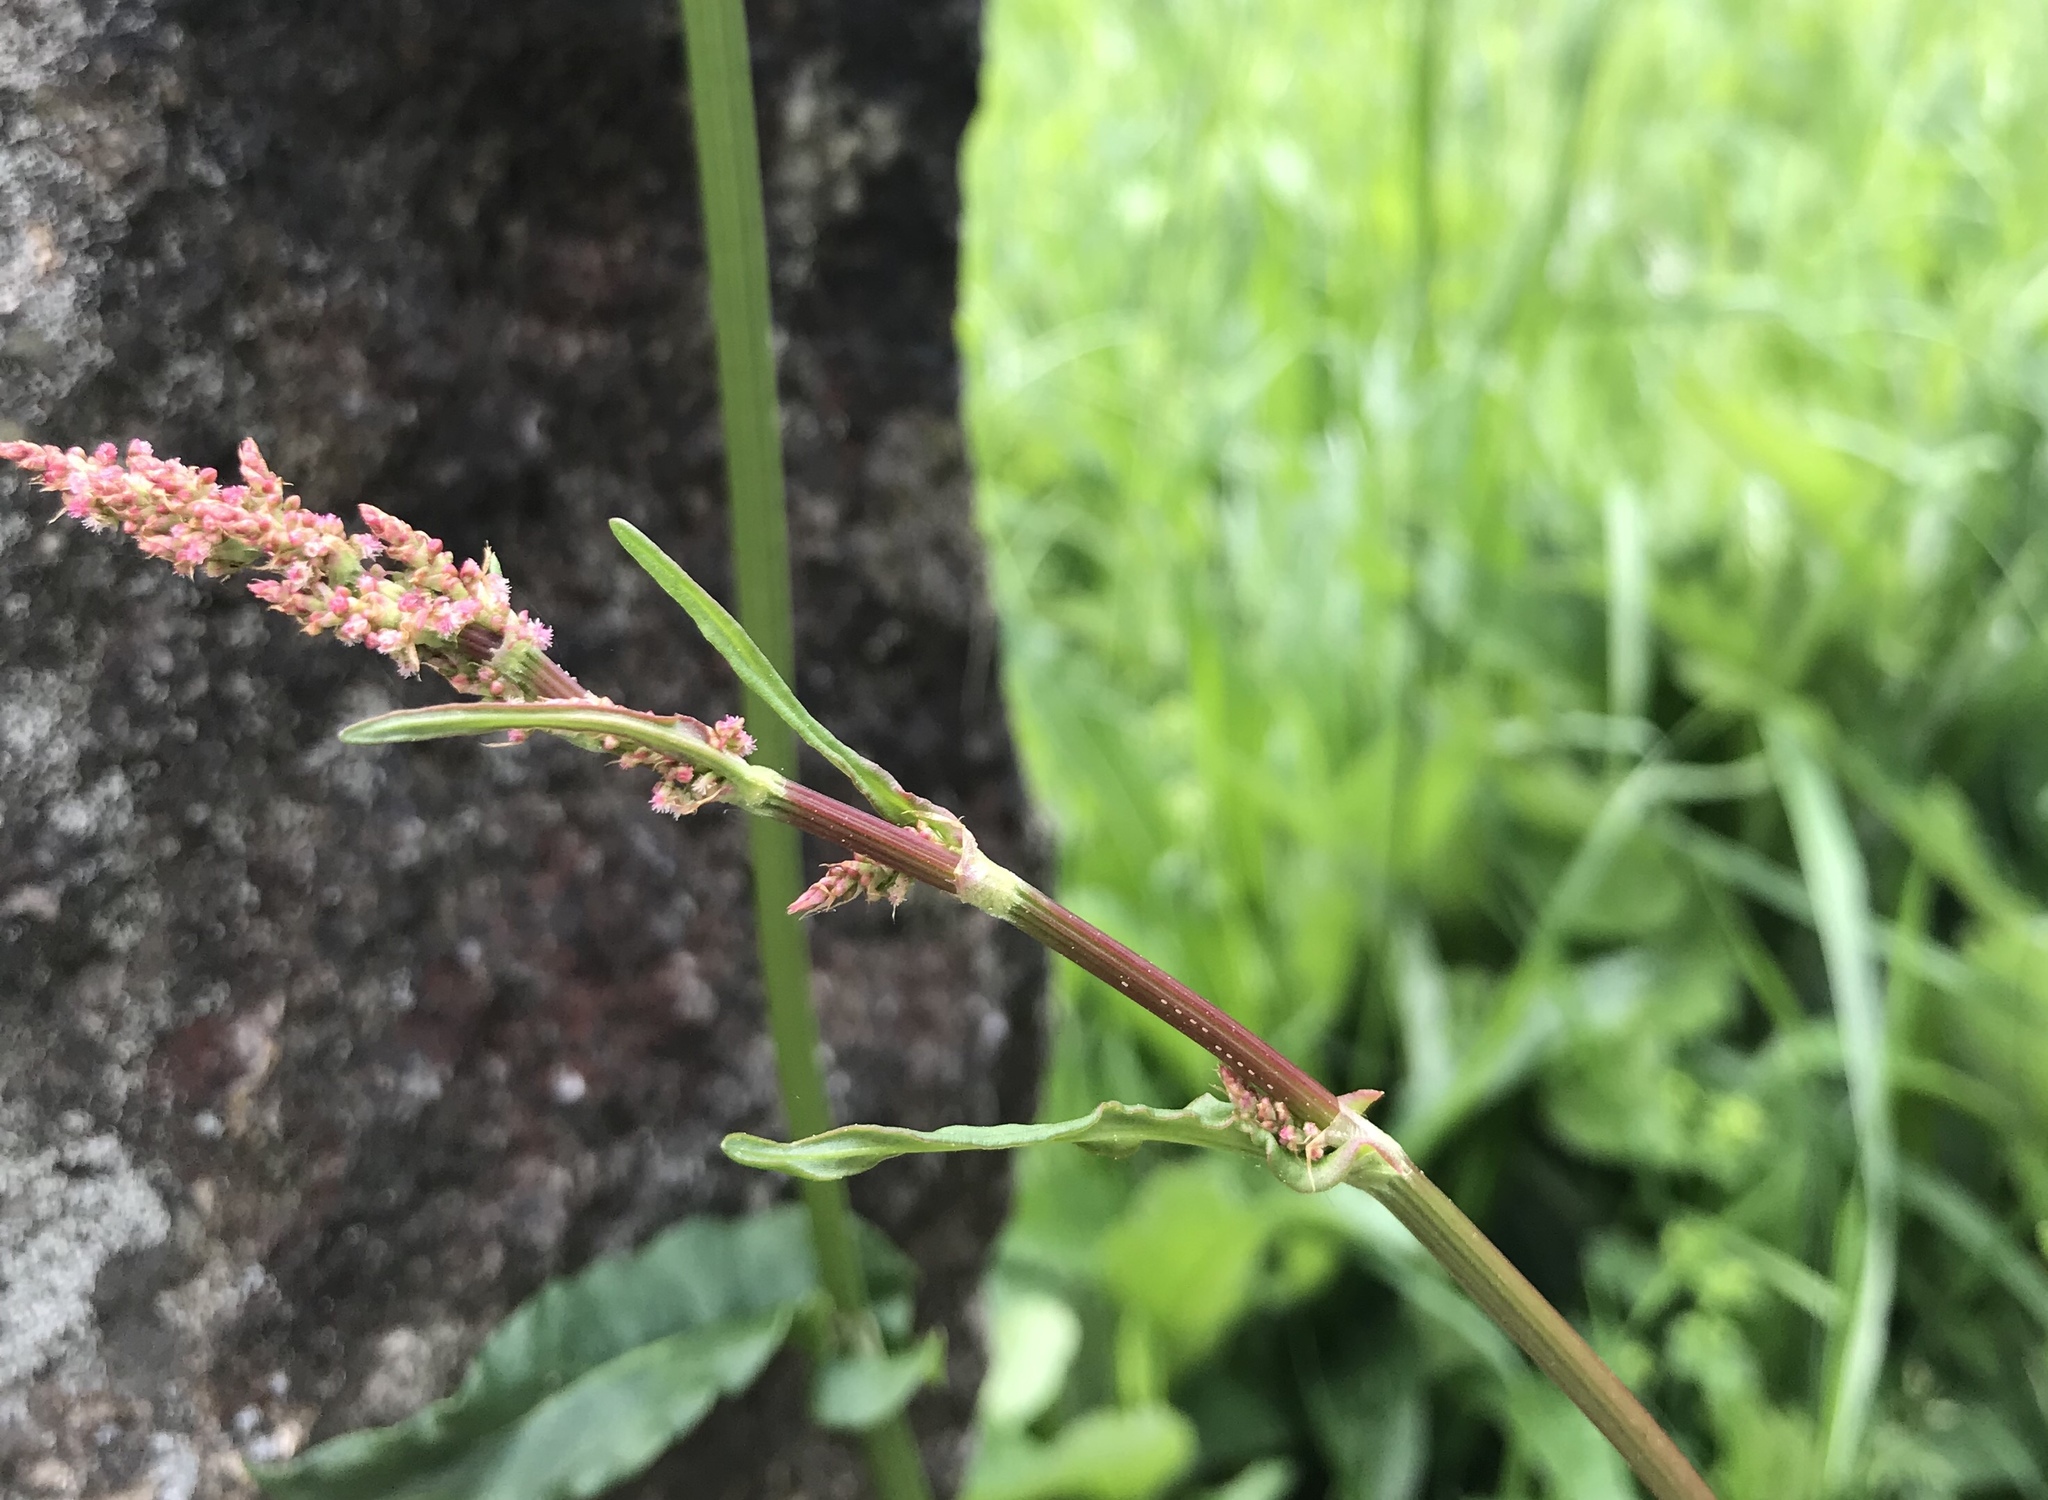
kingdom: Plantae
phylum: Tracheophyta
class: Magnoliopsida
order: Caryophyllales
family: Polygonaceae
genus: Rumex
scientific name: Rumex acetosa
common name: Garden sorrel
